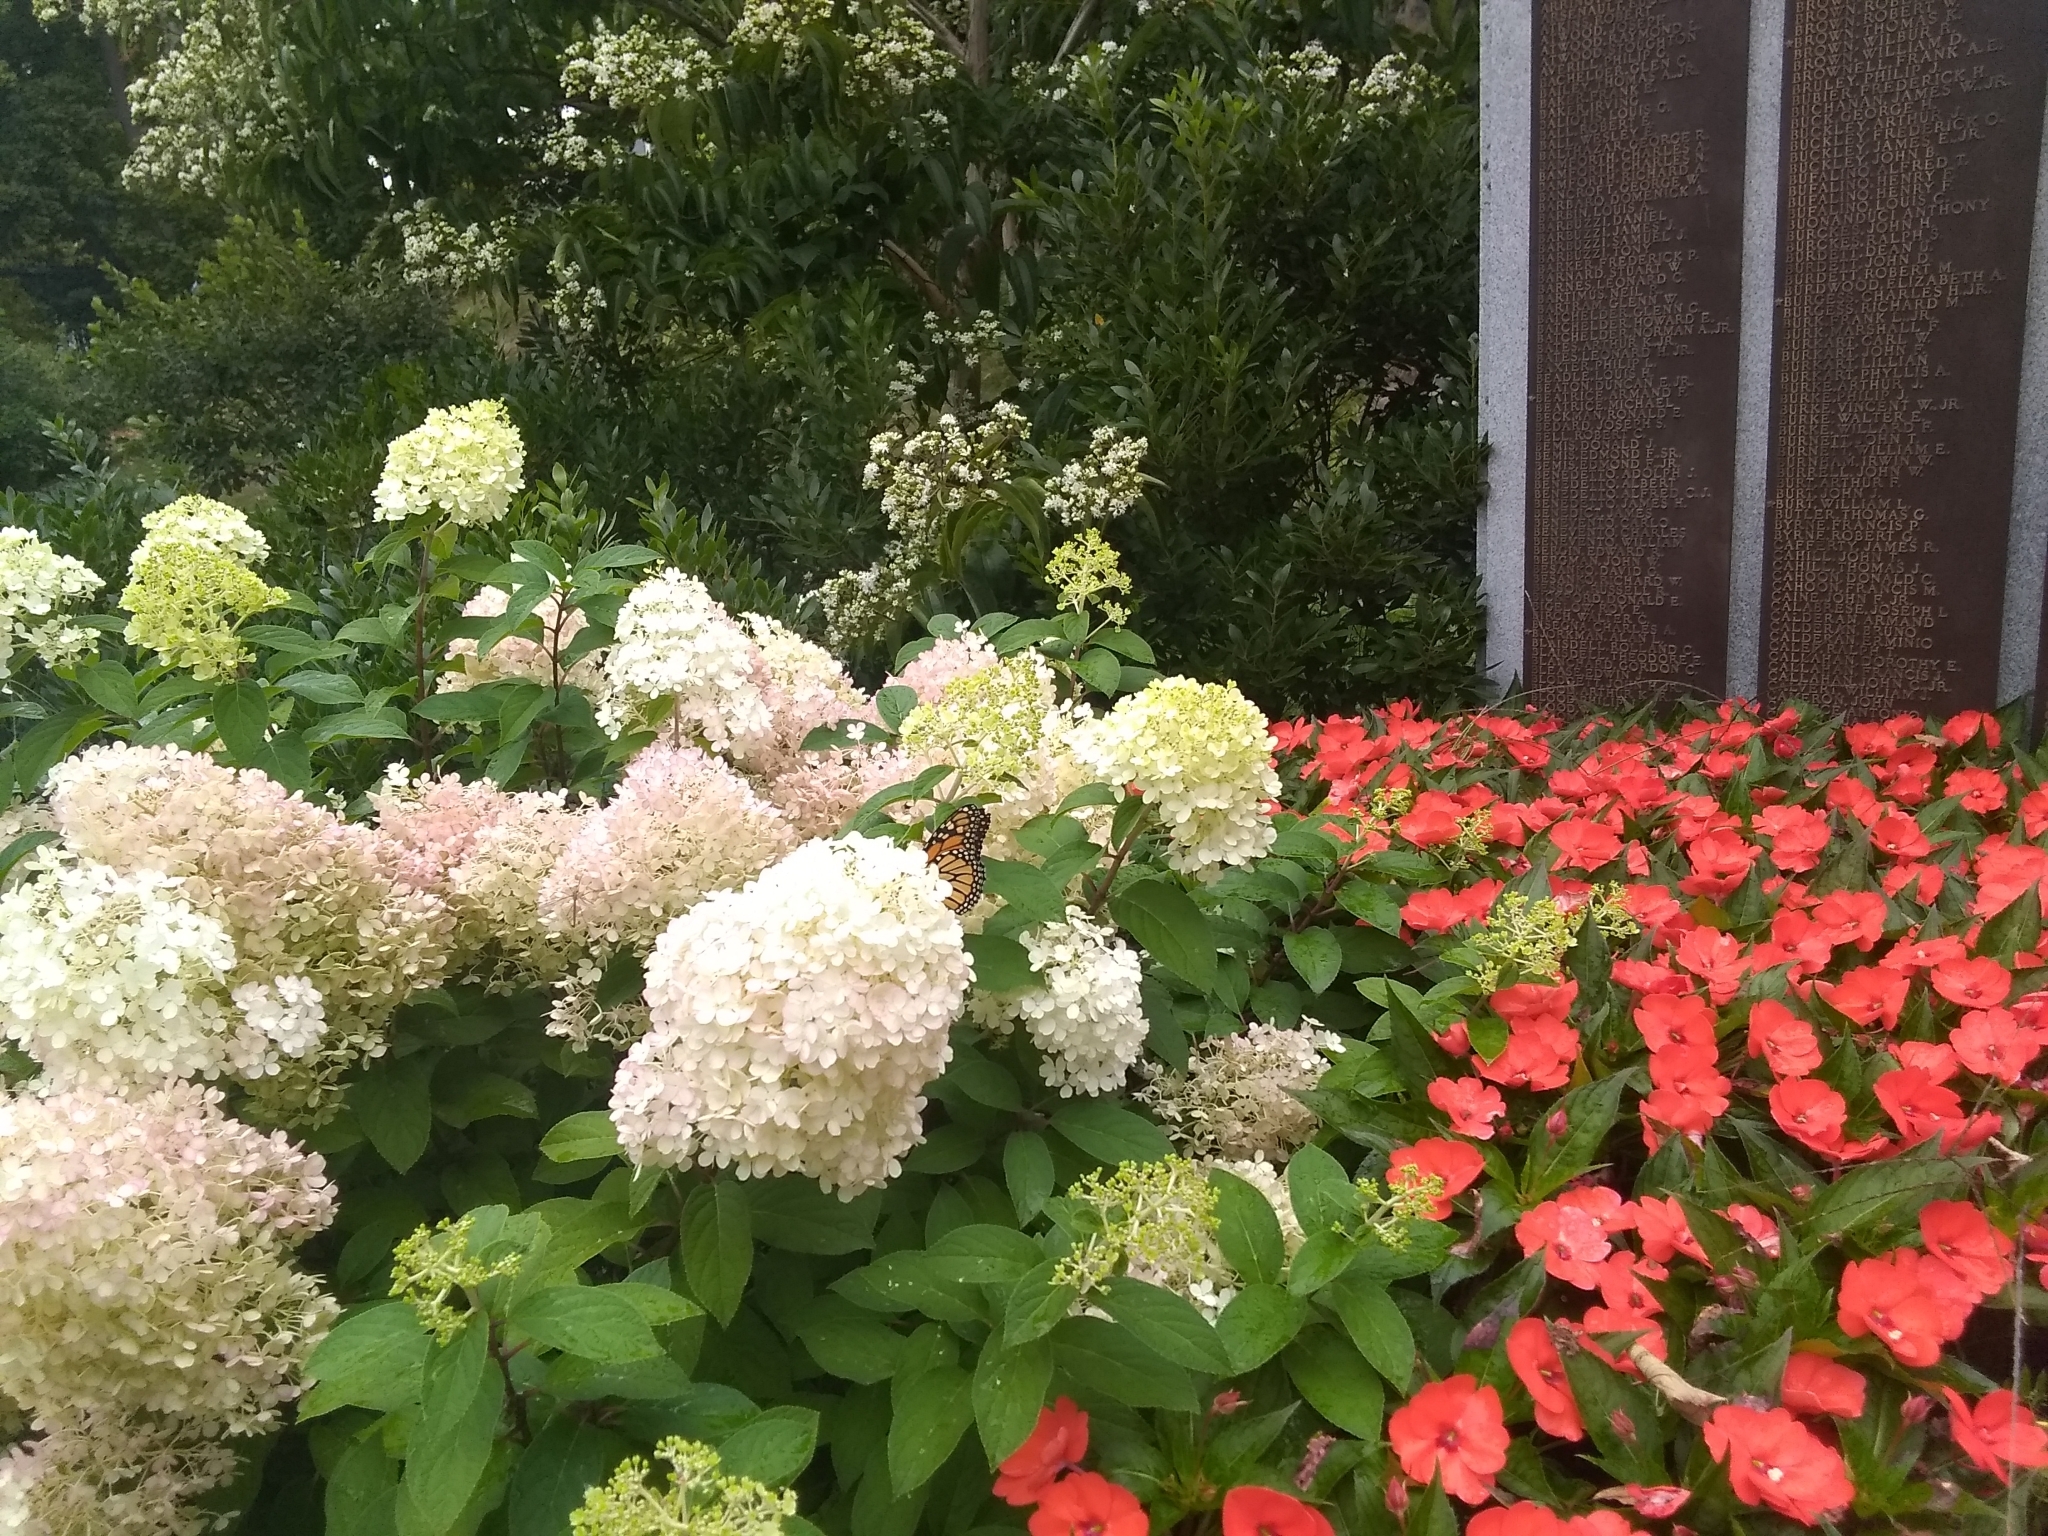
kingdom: Animalia
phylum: Arthropoda
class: Insecta
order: Lepidoptera
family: Nymphalidae
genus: Danaus
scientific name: Danaus plexippus
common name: Monarch
